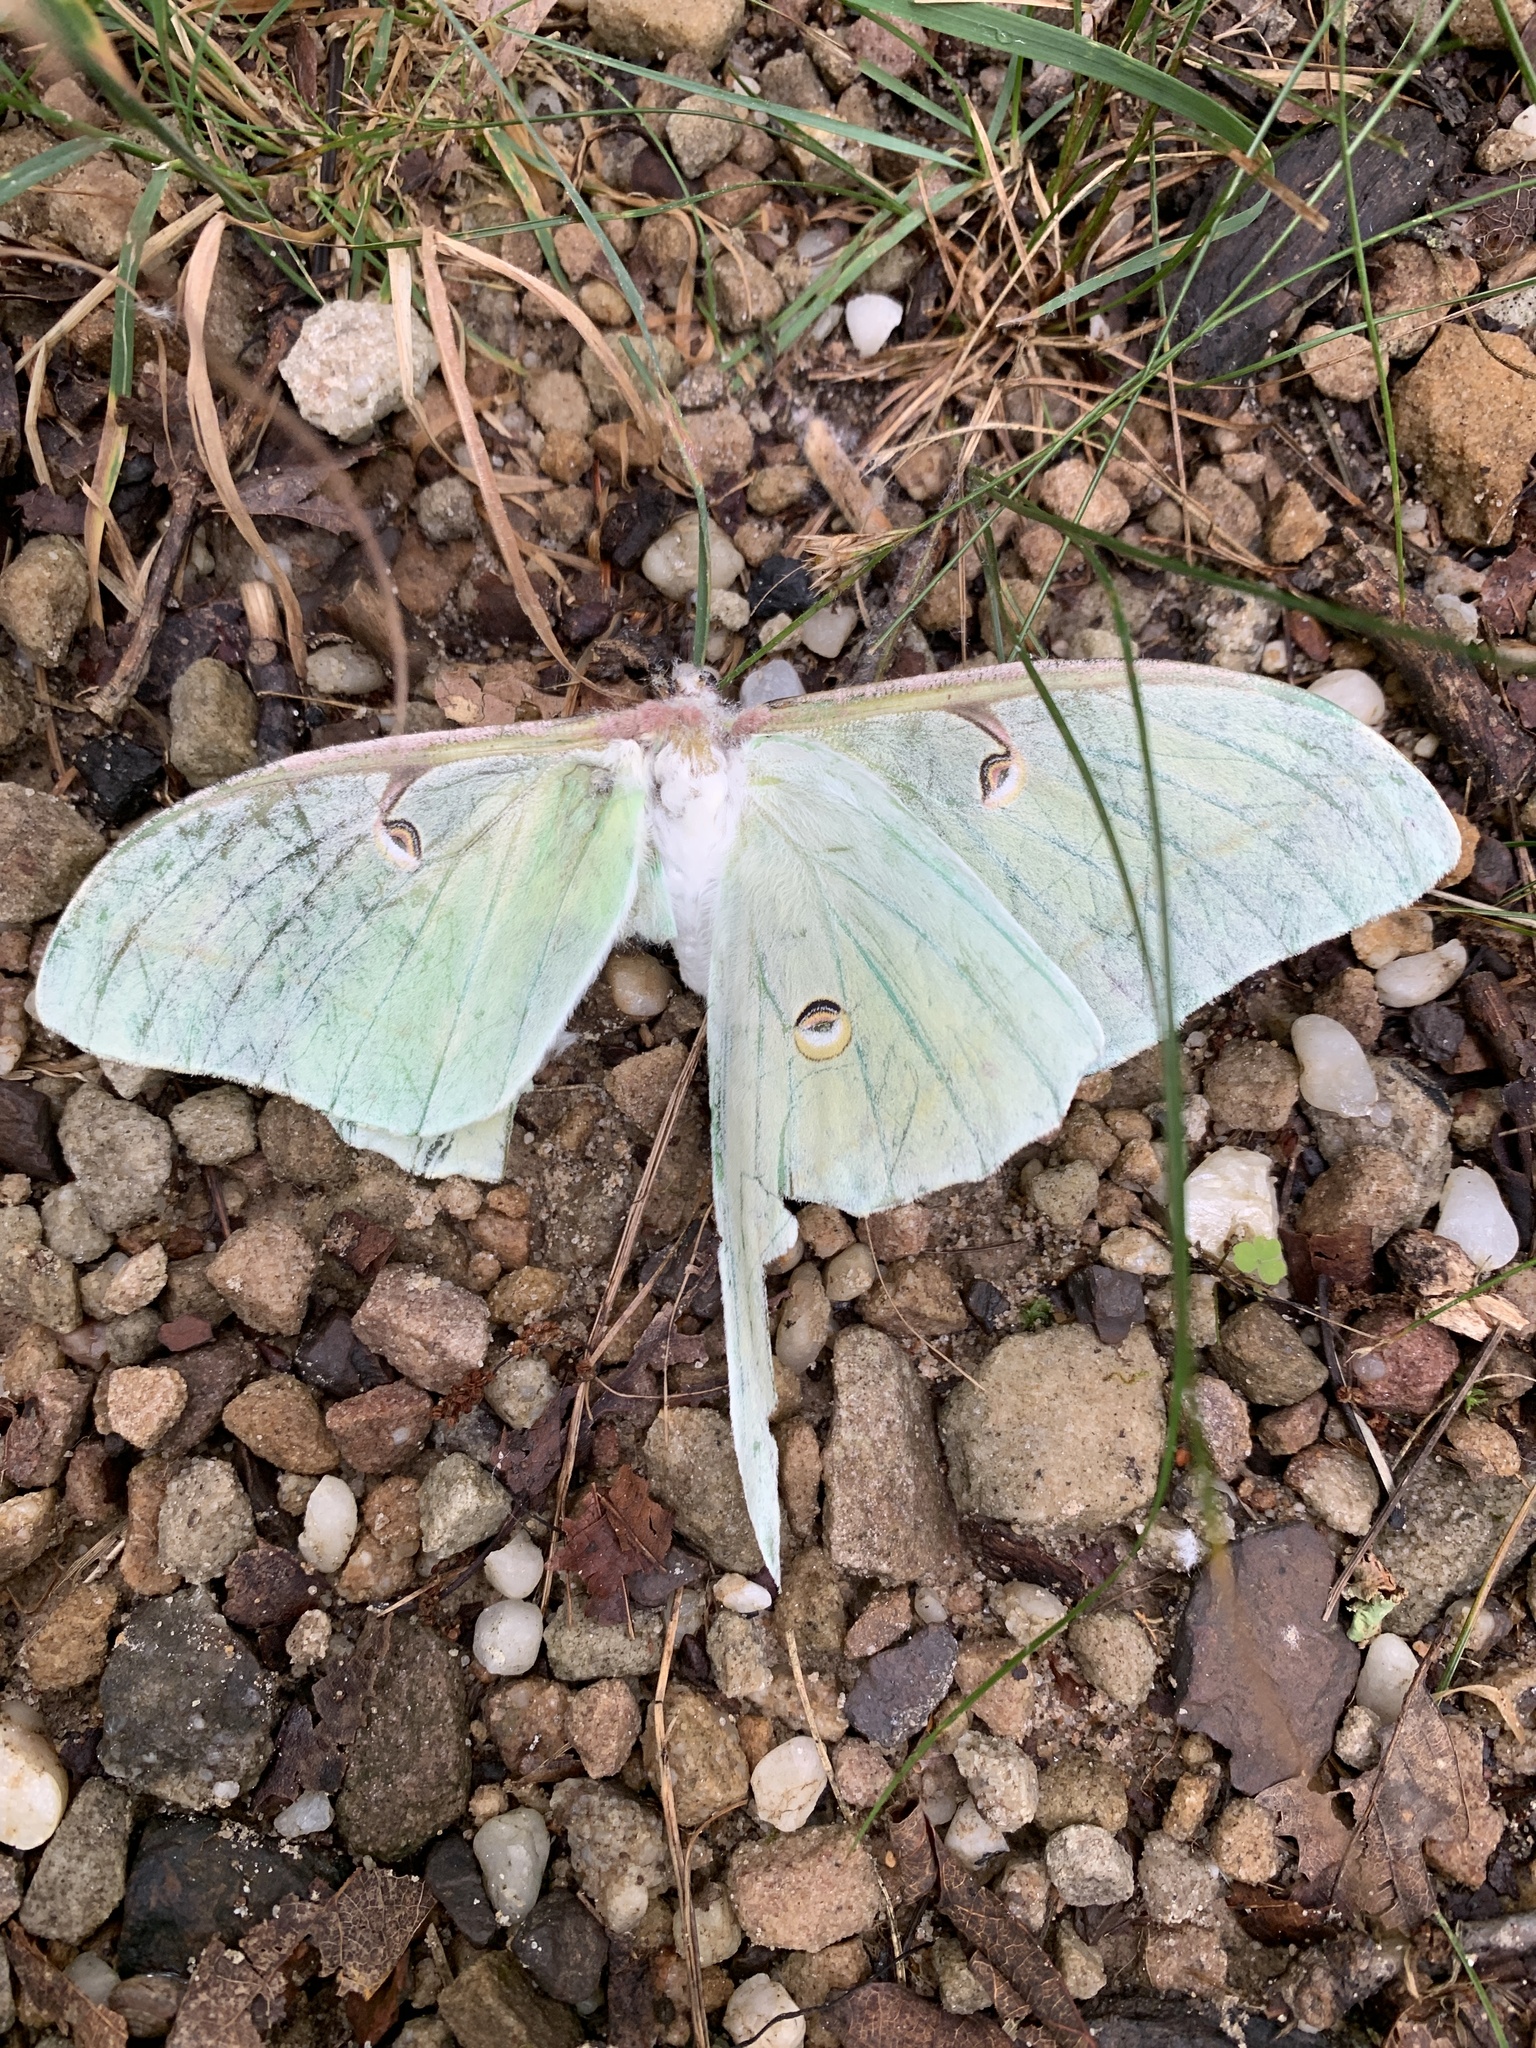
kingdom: Animalia
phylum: Arthropoda
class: Insecta
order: Lepidoptera
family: Saturniidae
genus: Actias
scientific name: Actias luna
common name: Luna moth
